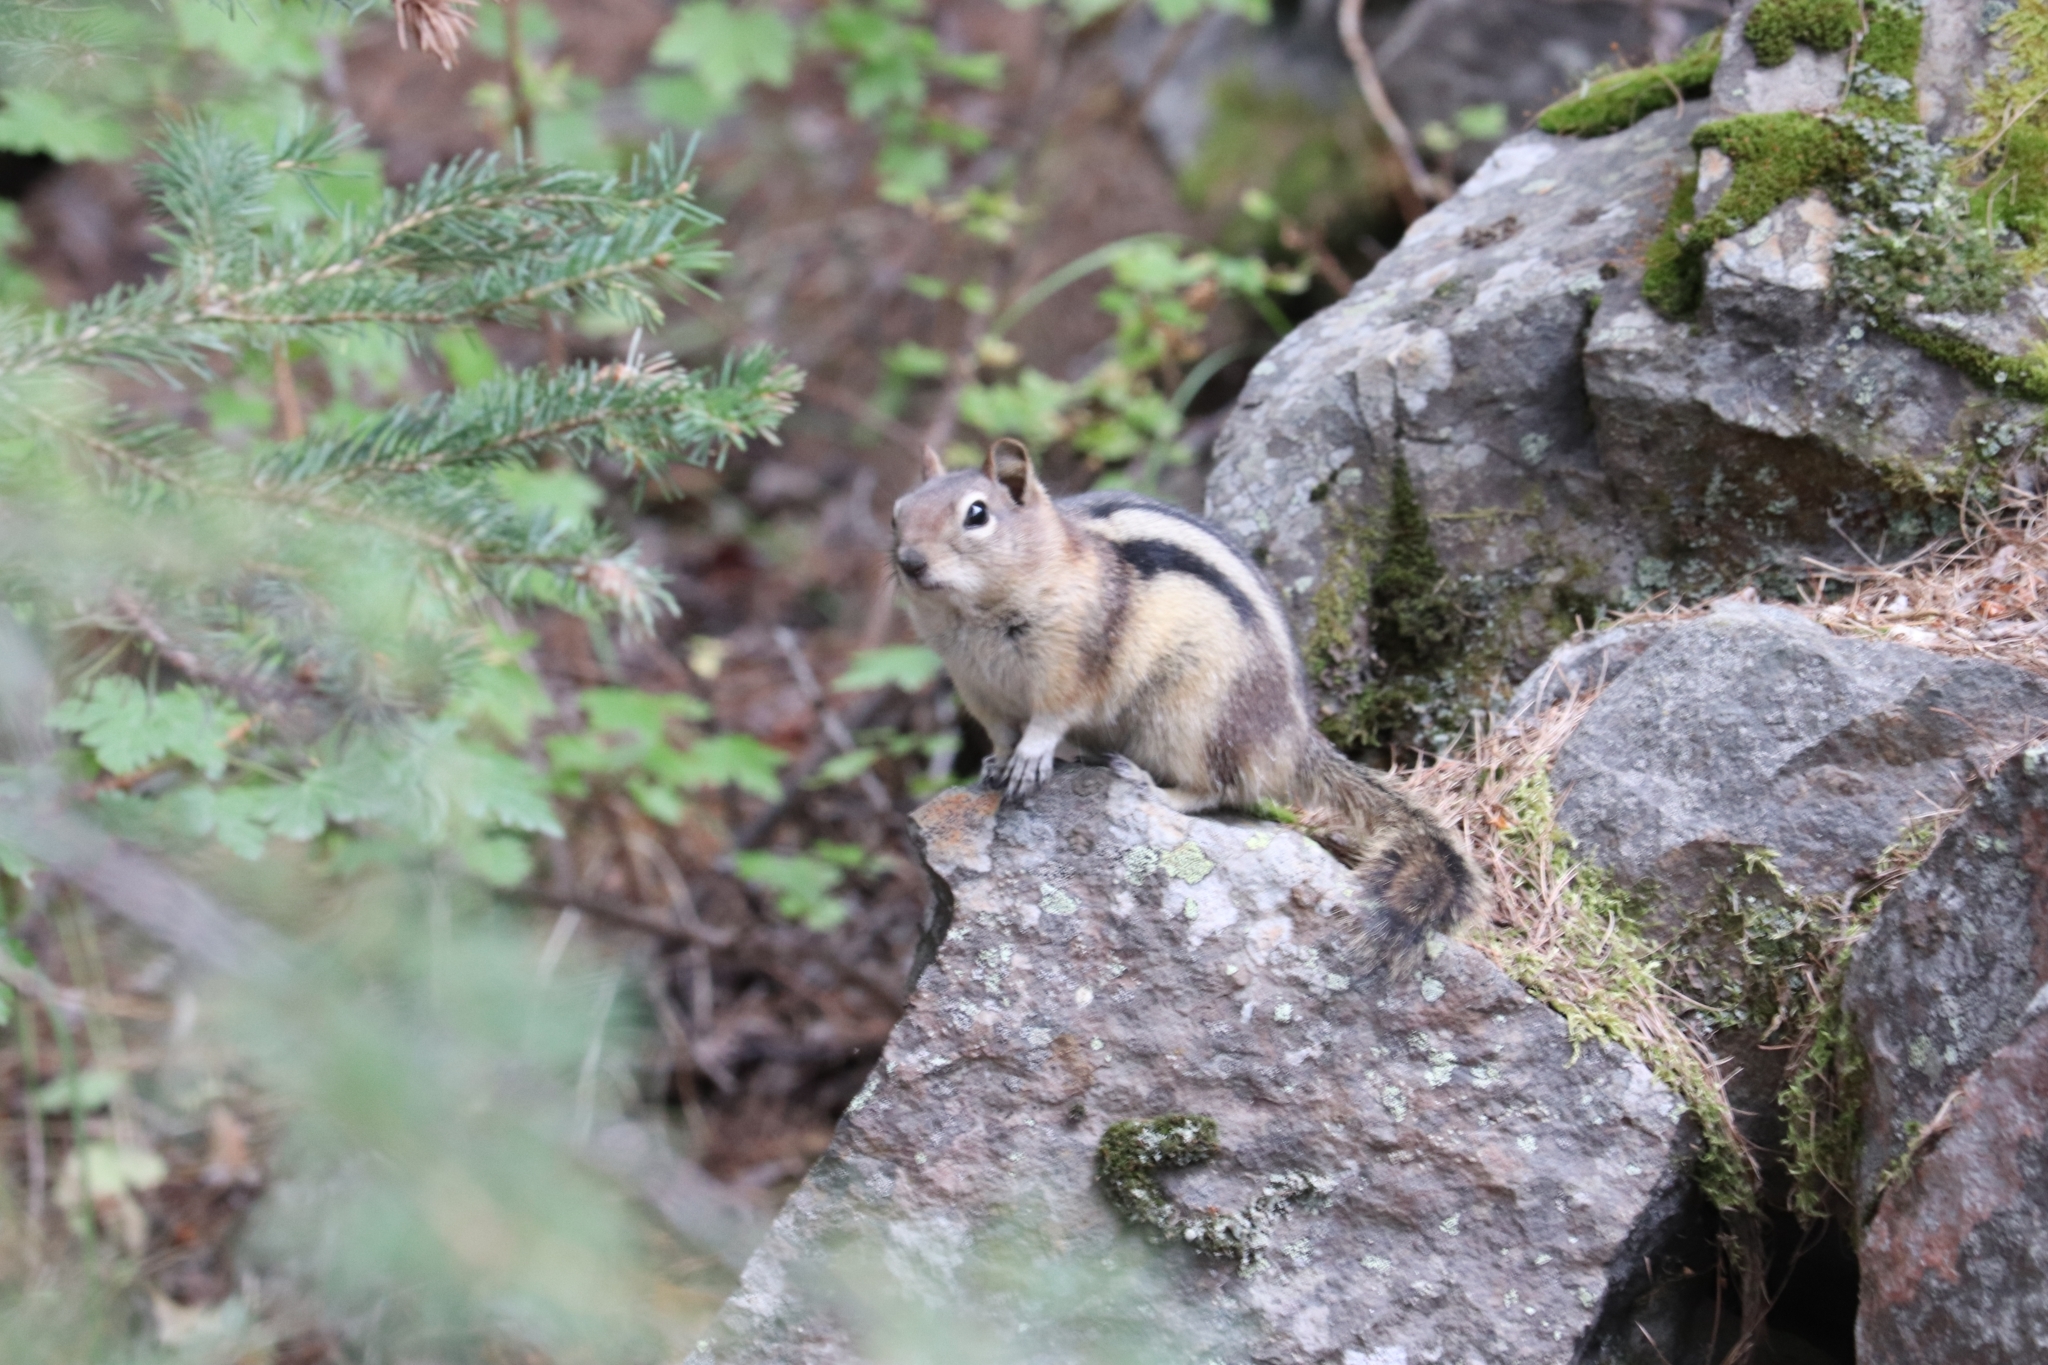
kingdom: Animalia
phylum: Chordata
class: Mammalia
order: Rodentia
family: Sciuridae
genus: Callospermophilus
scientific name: Callospermophilus lateralis
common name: Golden-mantled ground squirrel
